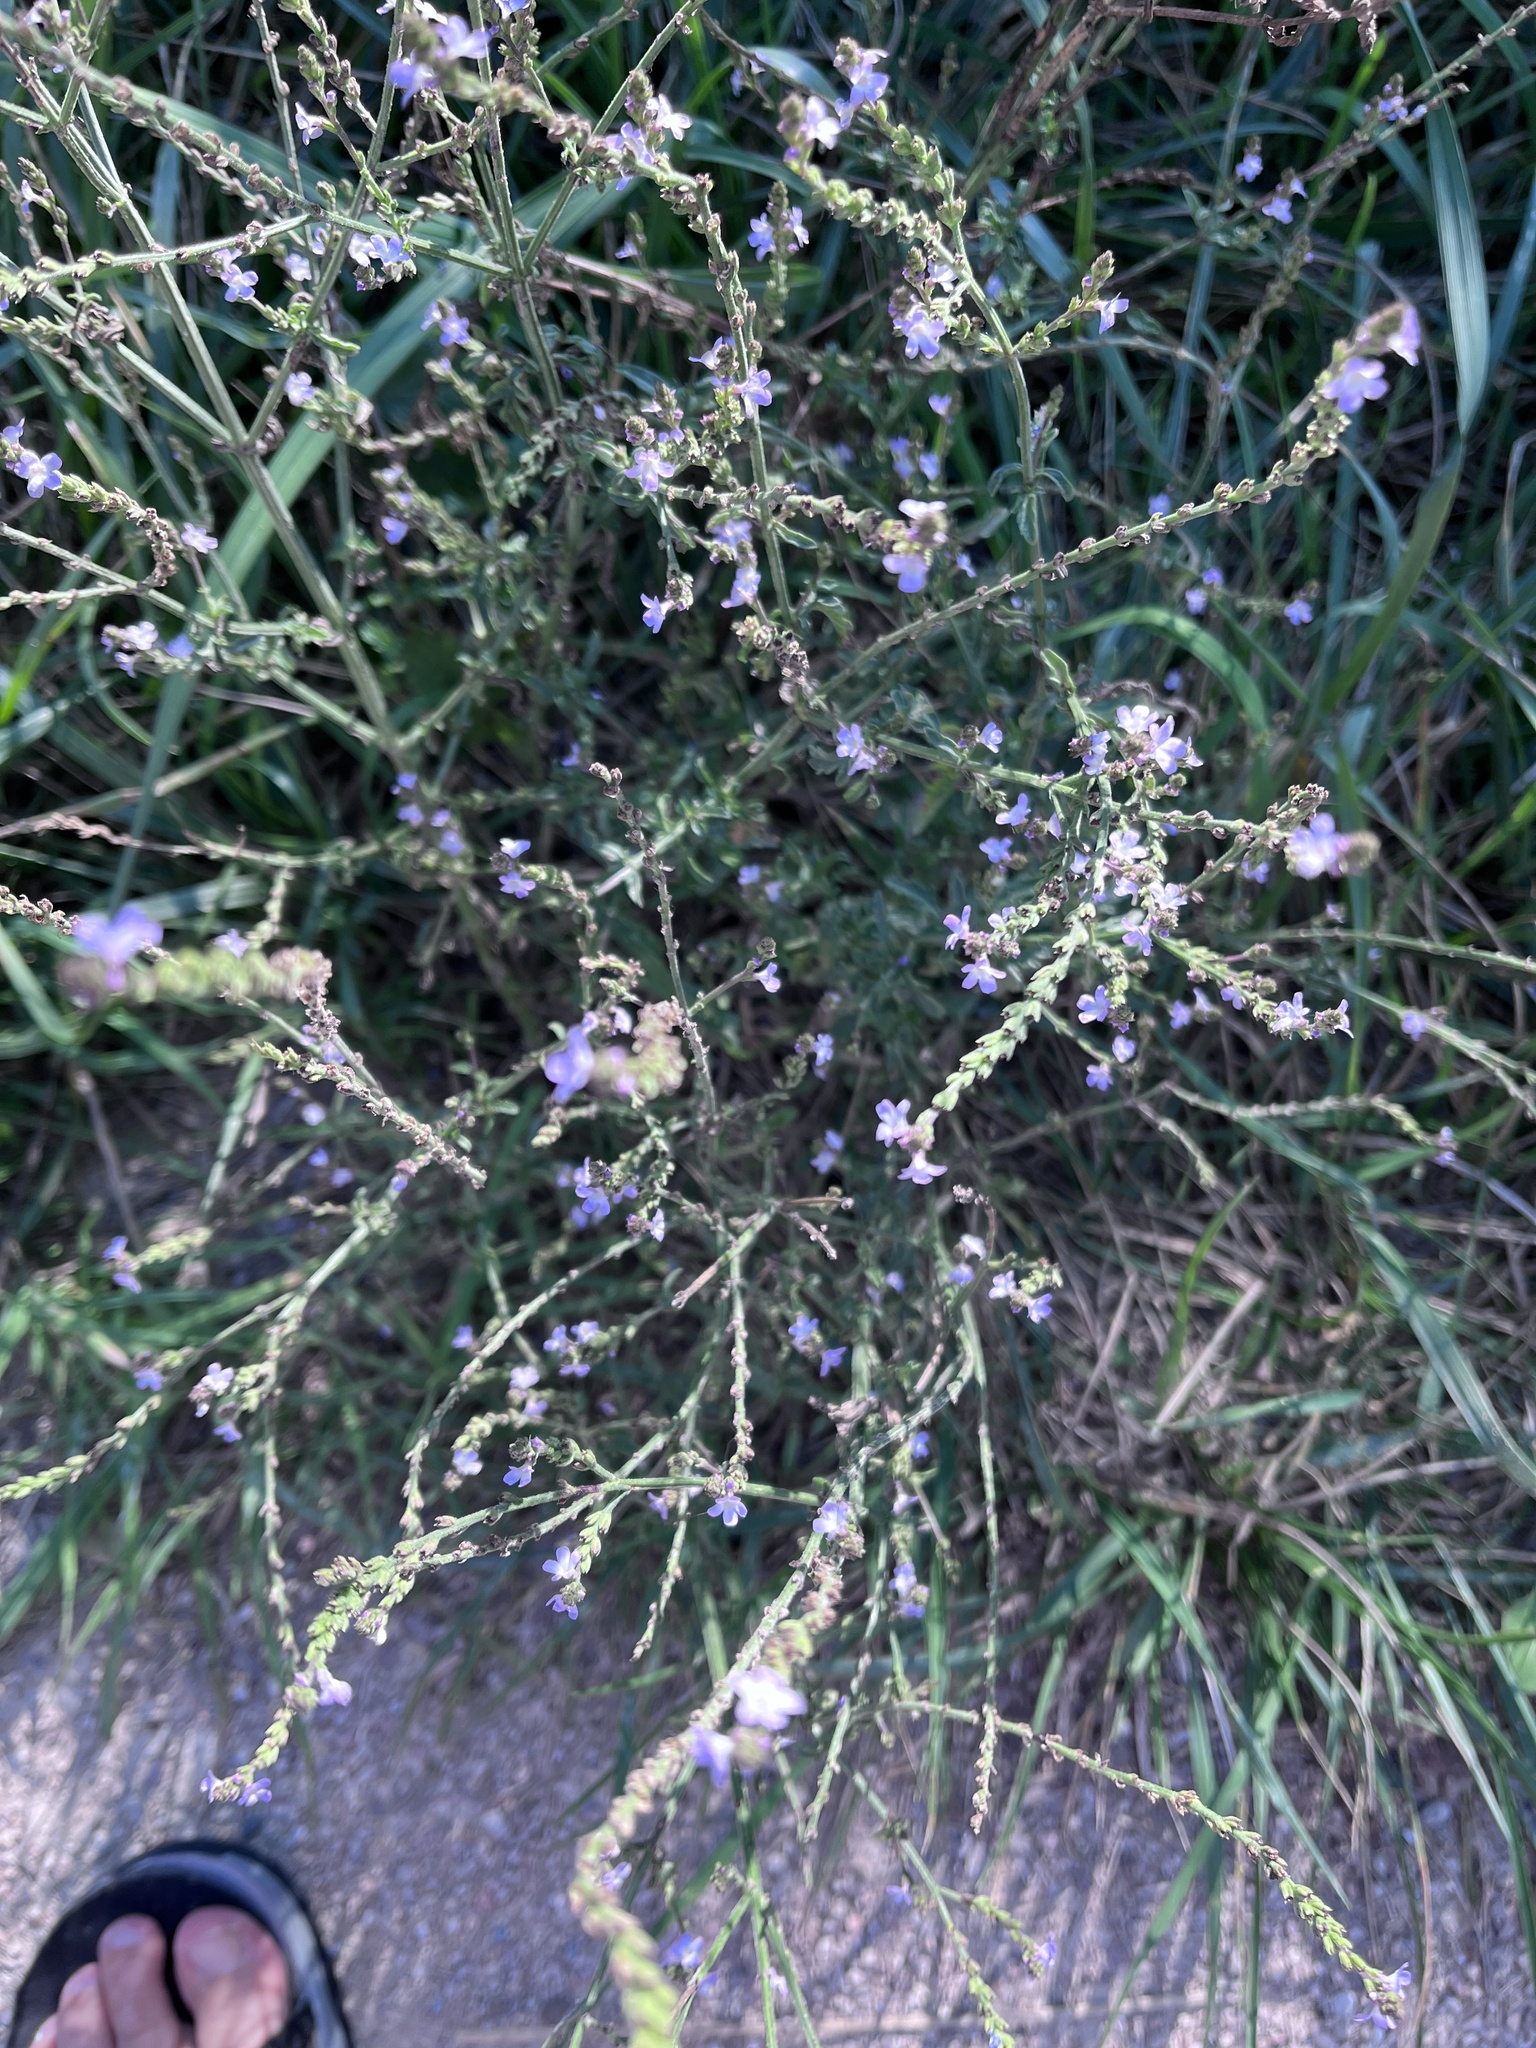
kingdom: Plantae
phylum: Tracheophyta
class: Magnoliopsida
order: Lamiales
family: Verbenaceae
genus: Verbena
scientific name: Verbena officinalis
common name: Vervain
